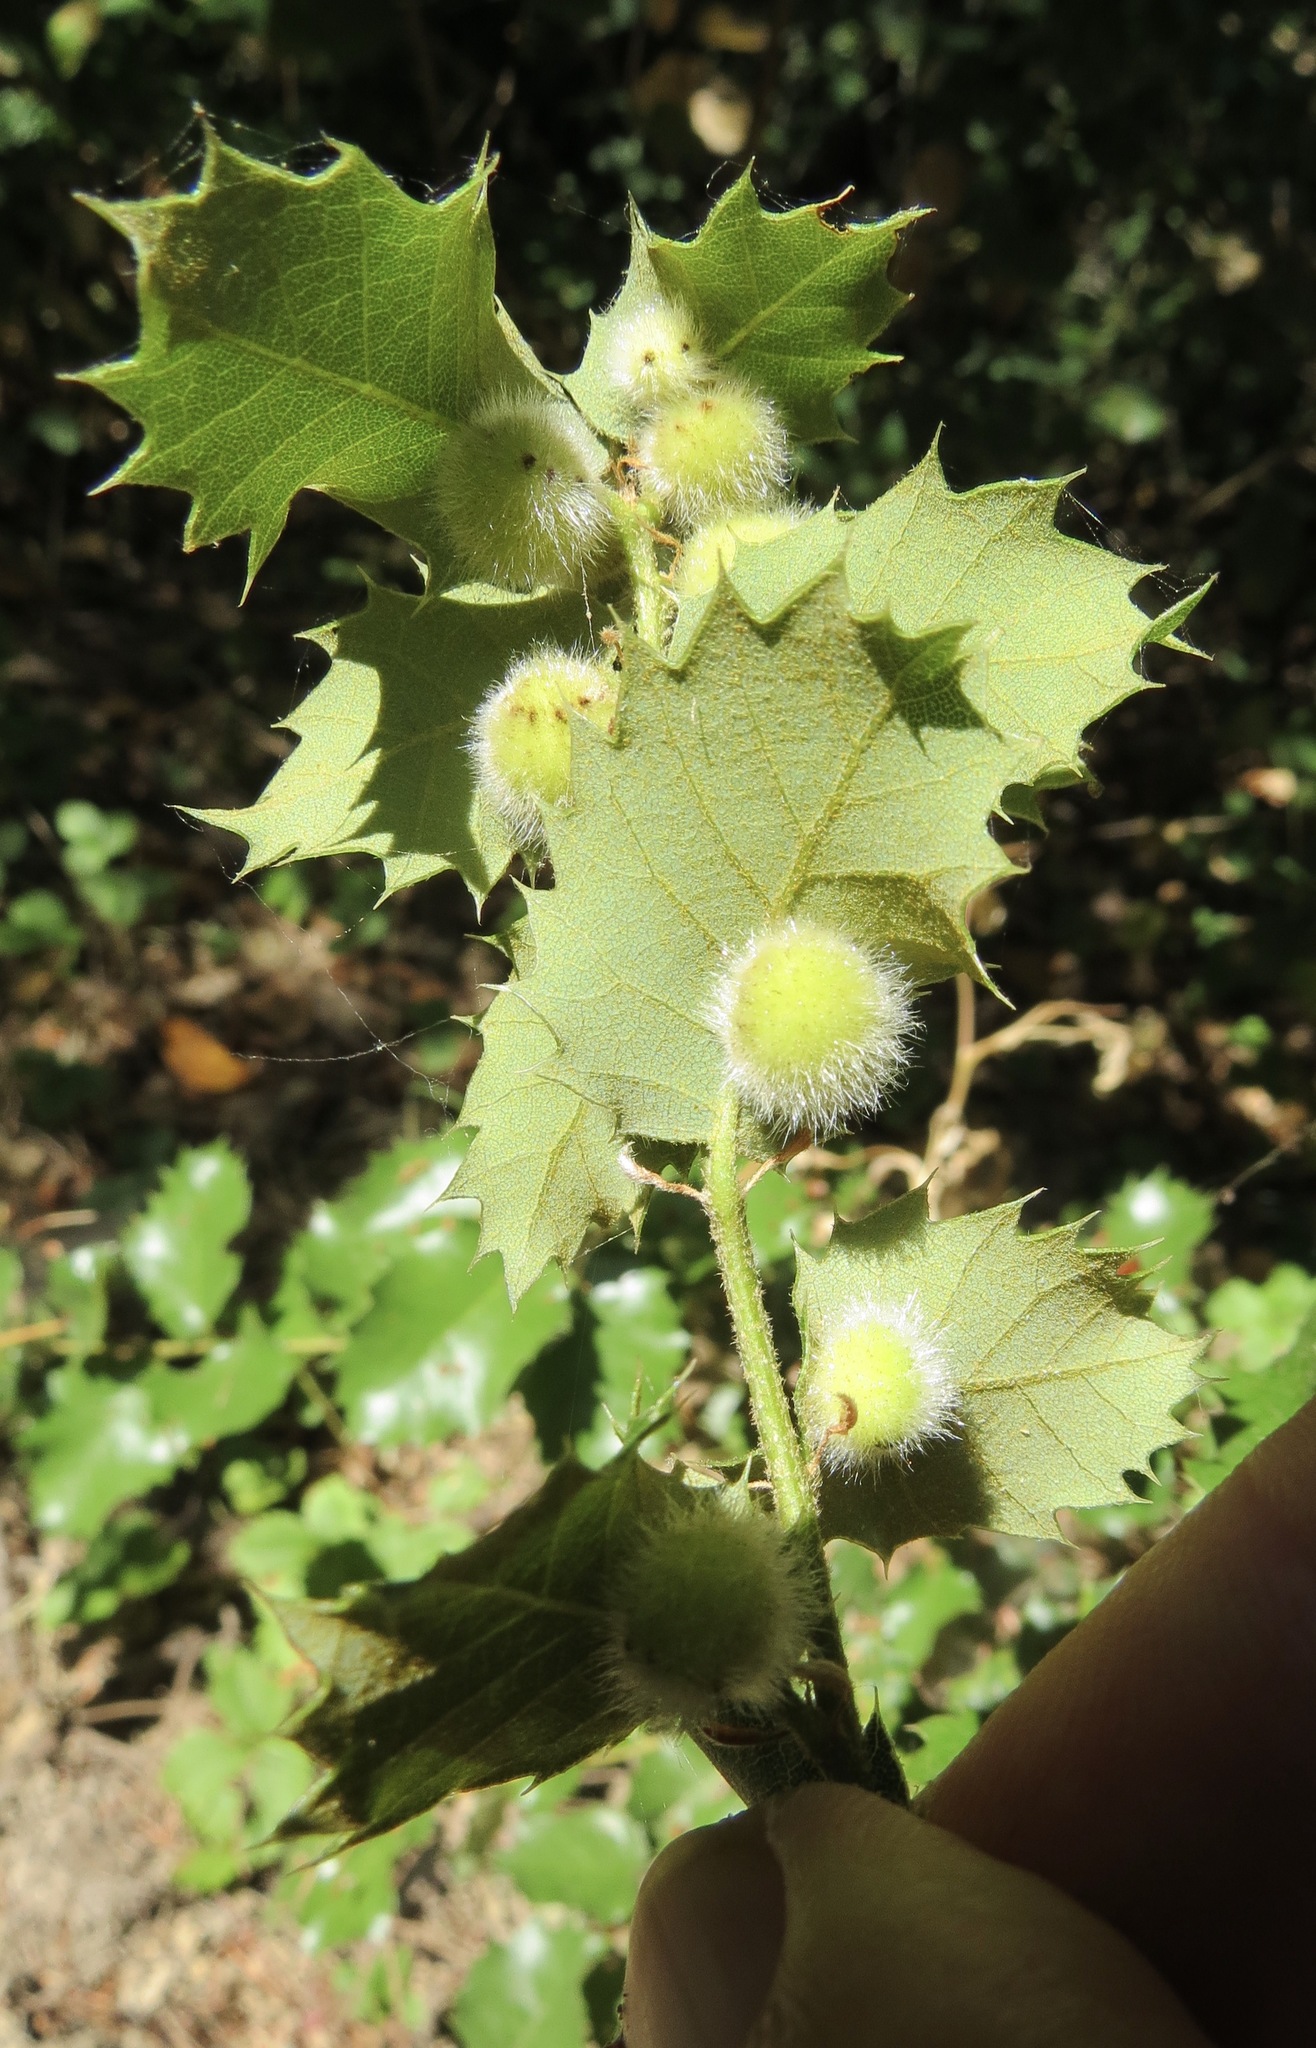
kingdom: Animalia
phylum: Arthropoda
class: Insecta
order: Hymenoptera
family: Cynipidae
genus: Disholandricus
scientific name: Disholandricus
